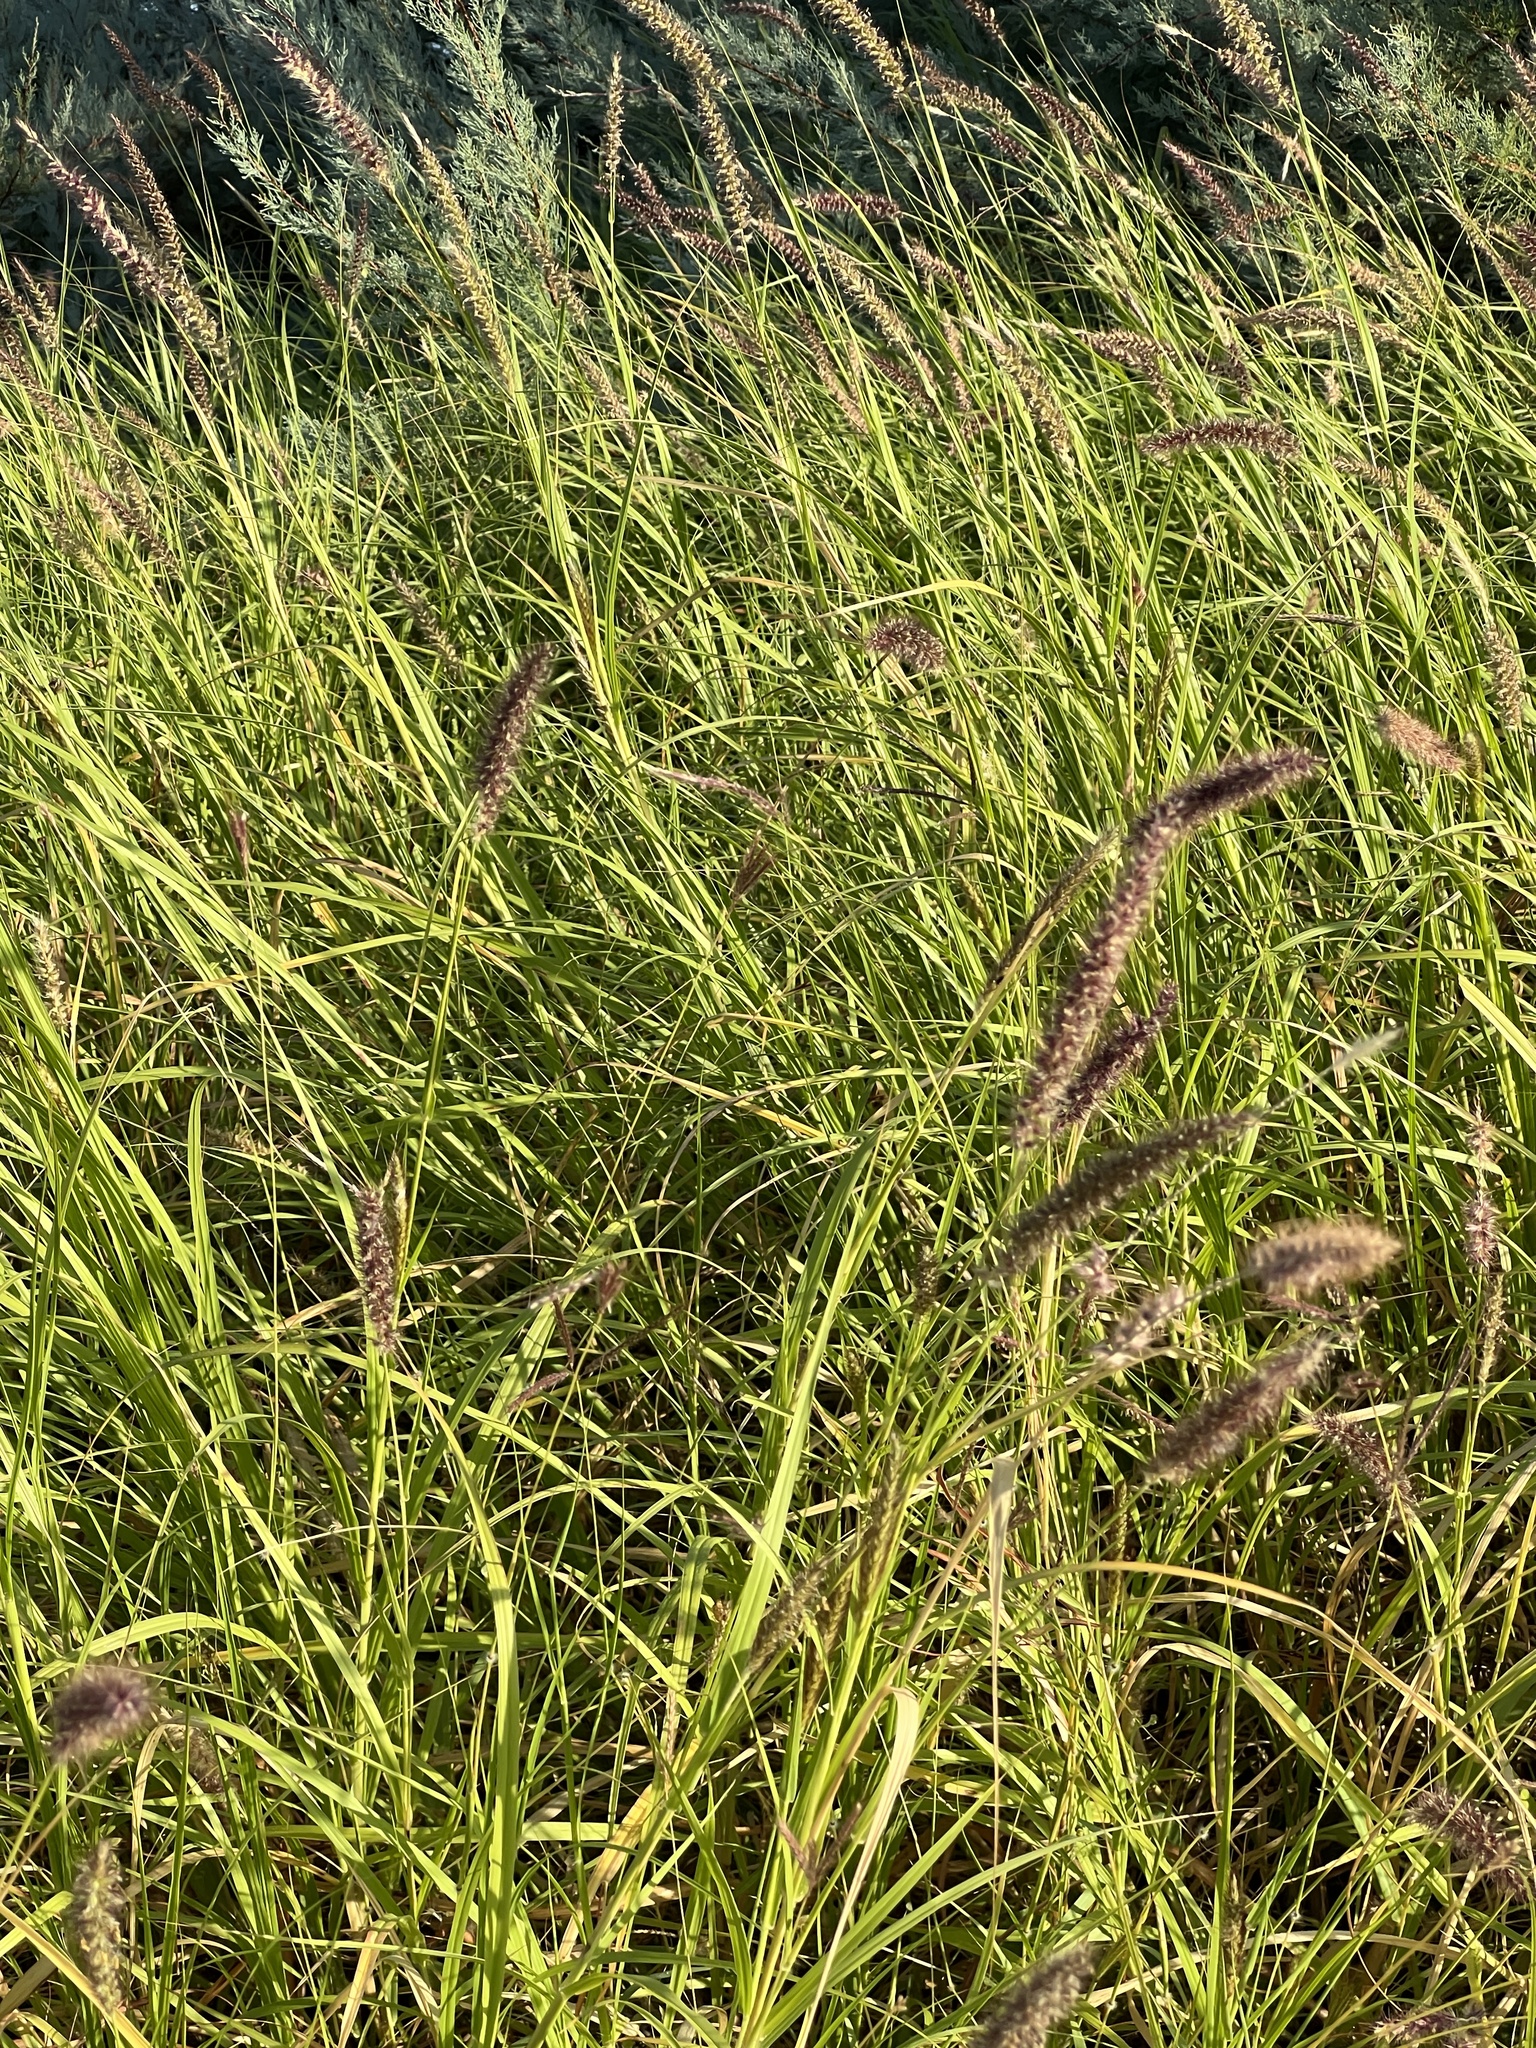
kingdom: Plantae
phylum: Tracheophyta
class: Liliopsida
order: Poales
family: Poaceae
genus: Cenchrus
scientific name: Cenchrus ciliaris
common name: Buffelgrass
